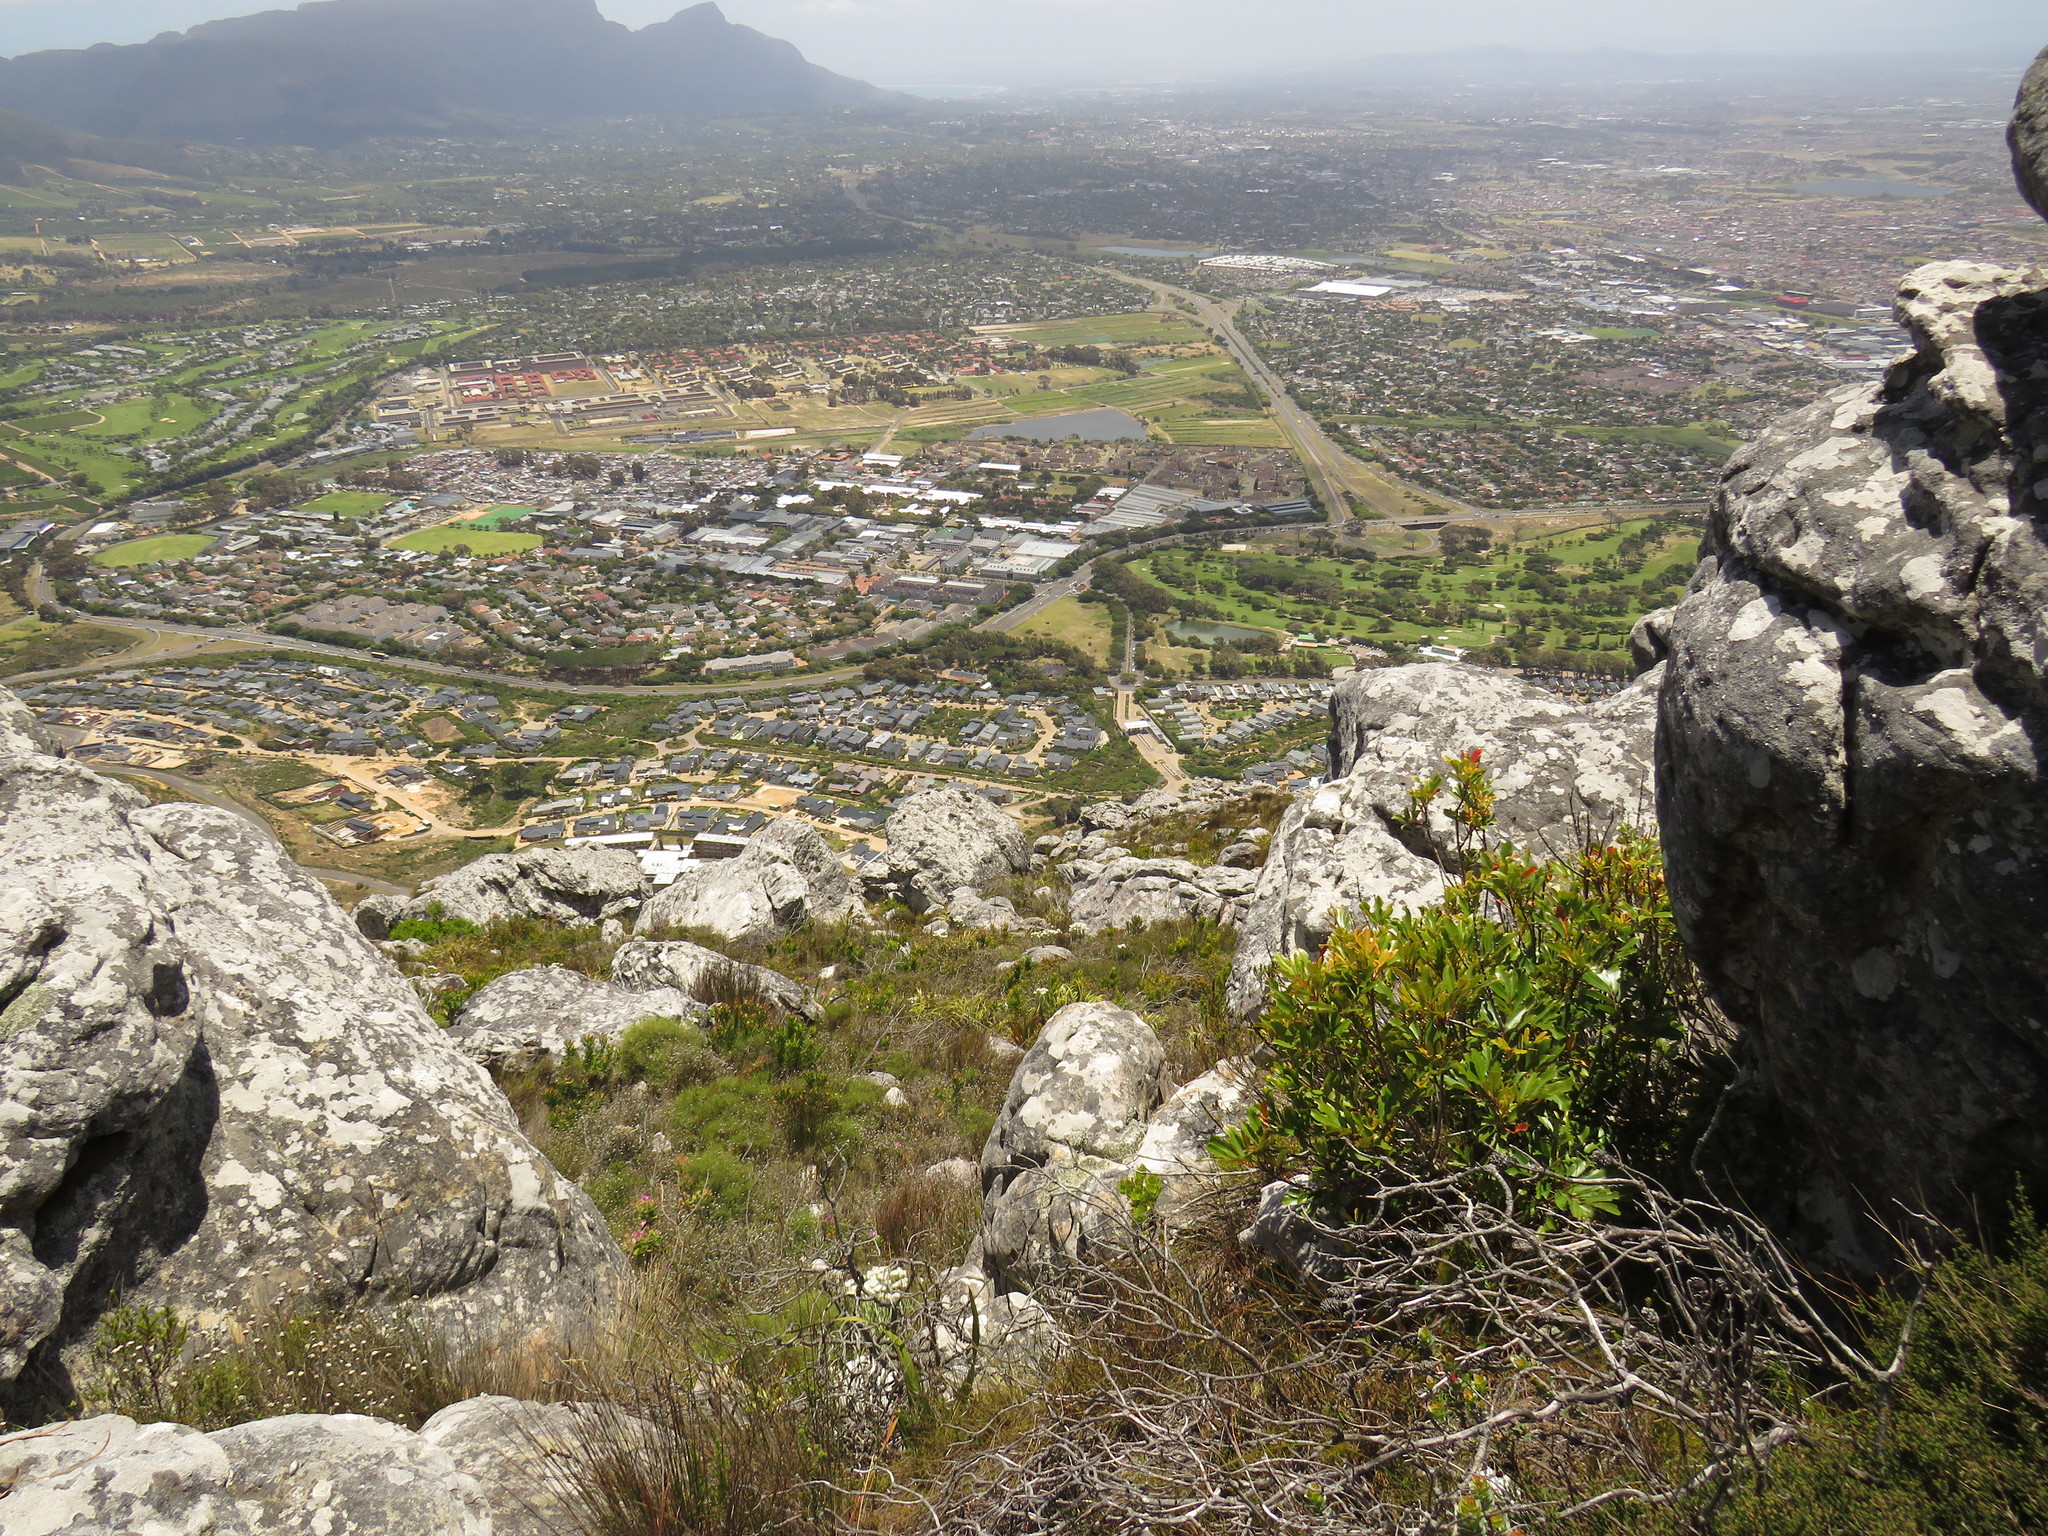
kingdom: Plantae
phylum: Tracheophyta
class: Magnoliopsida
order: Oxalidales
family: Cunoniaceae
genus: Cunonia
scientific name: Cunonia capensis
